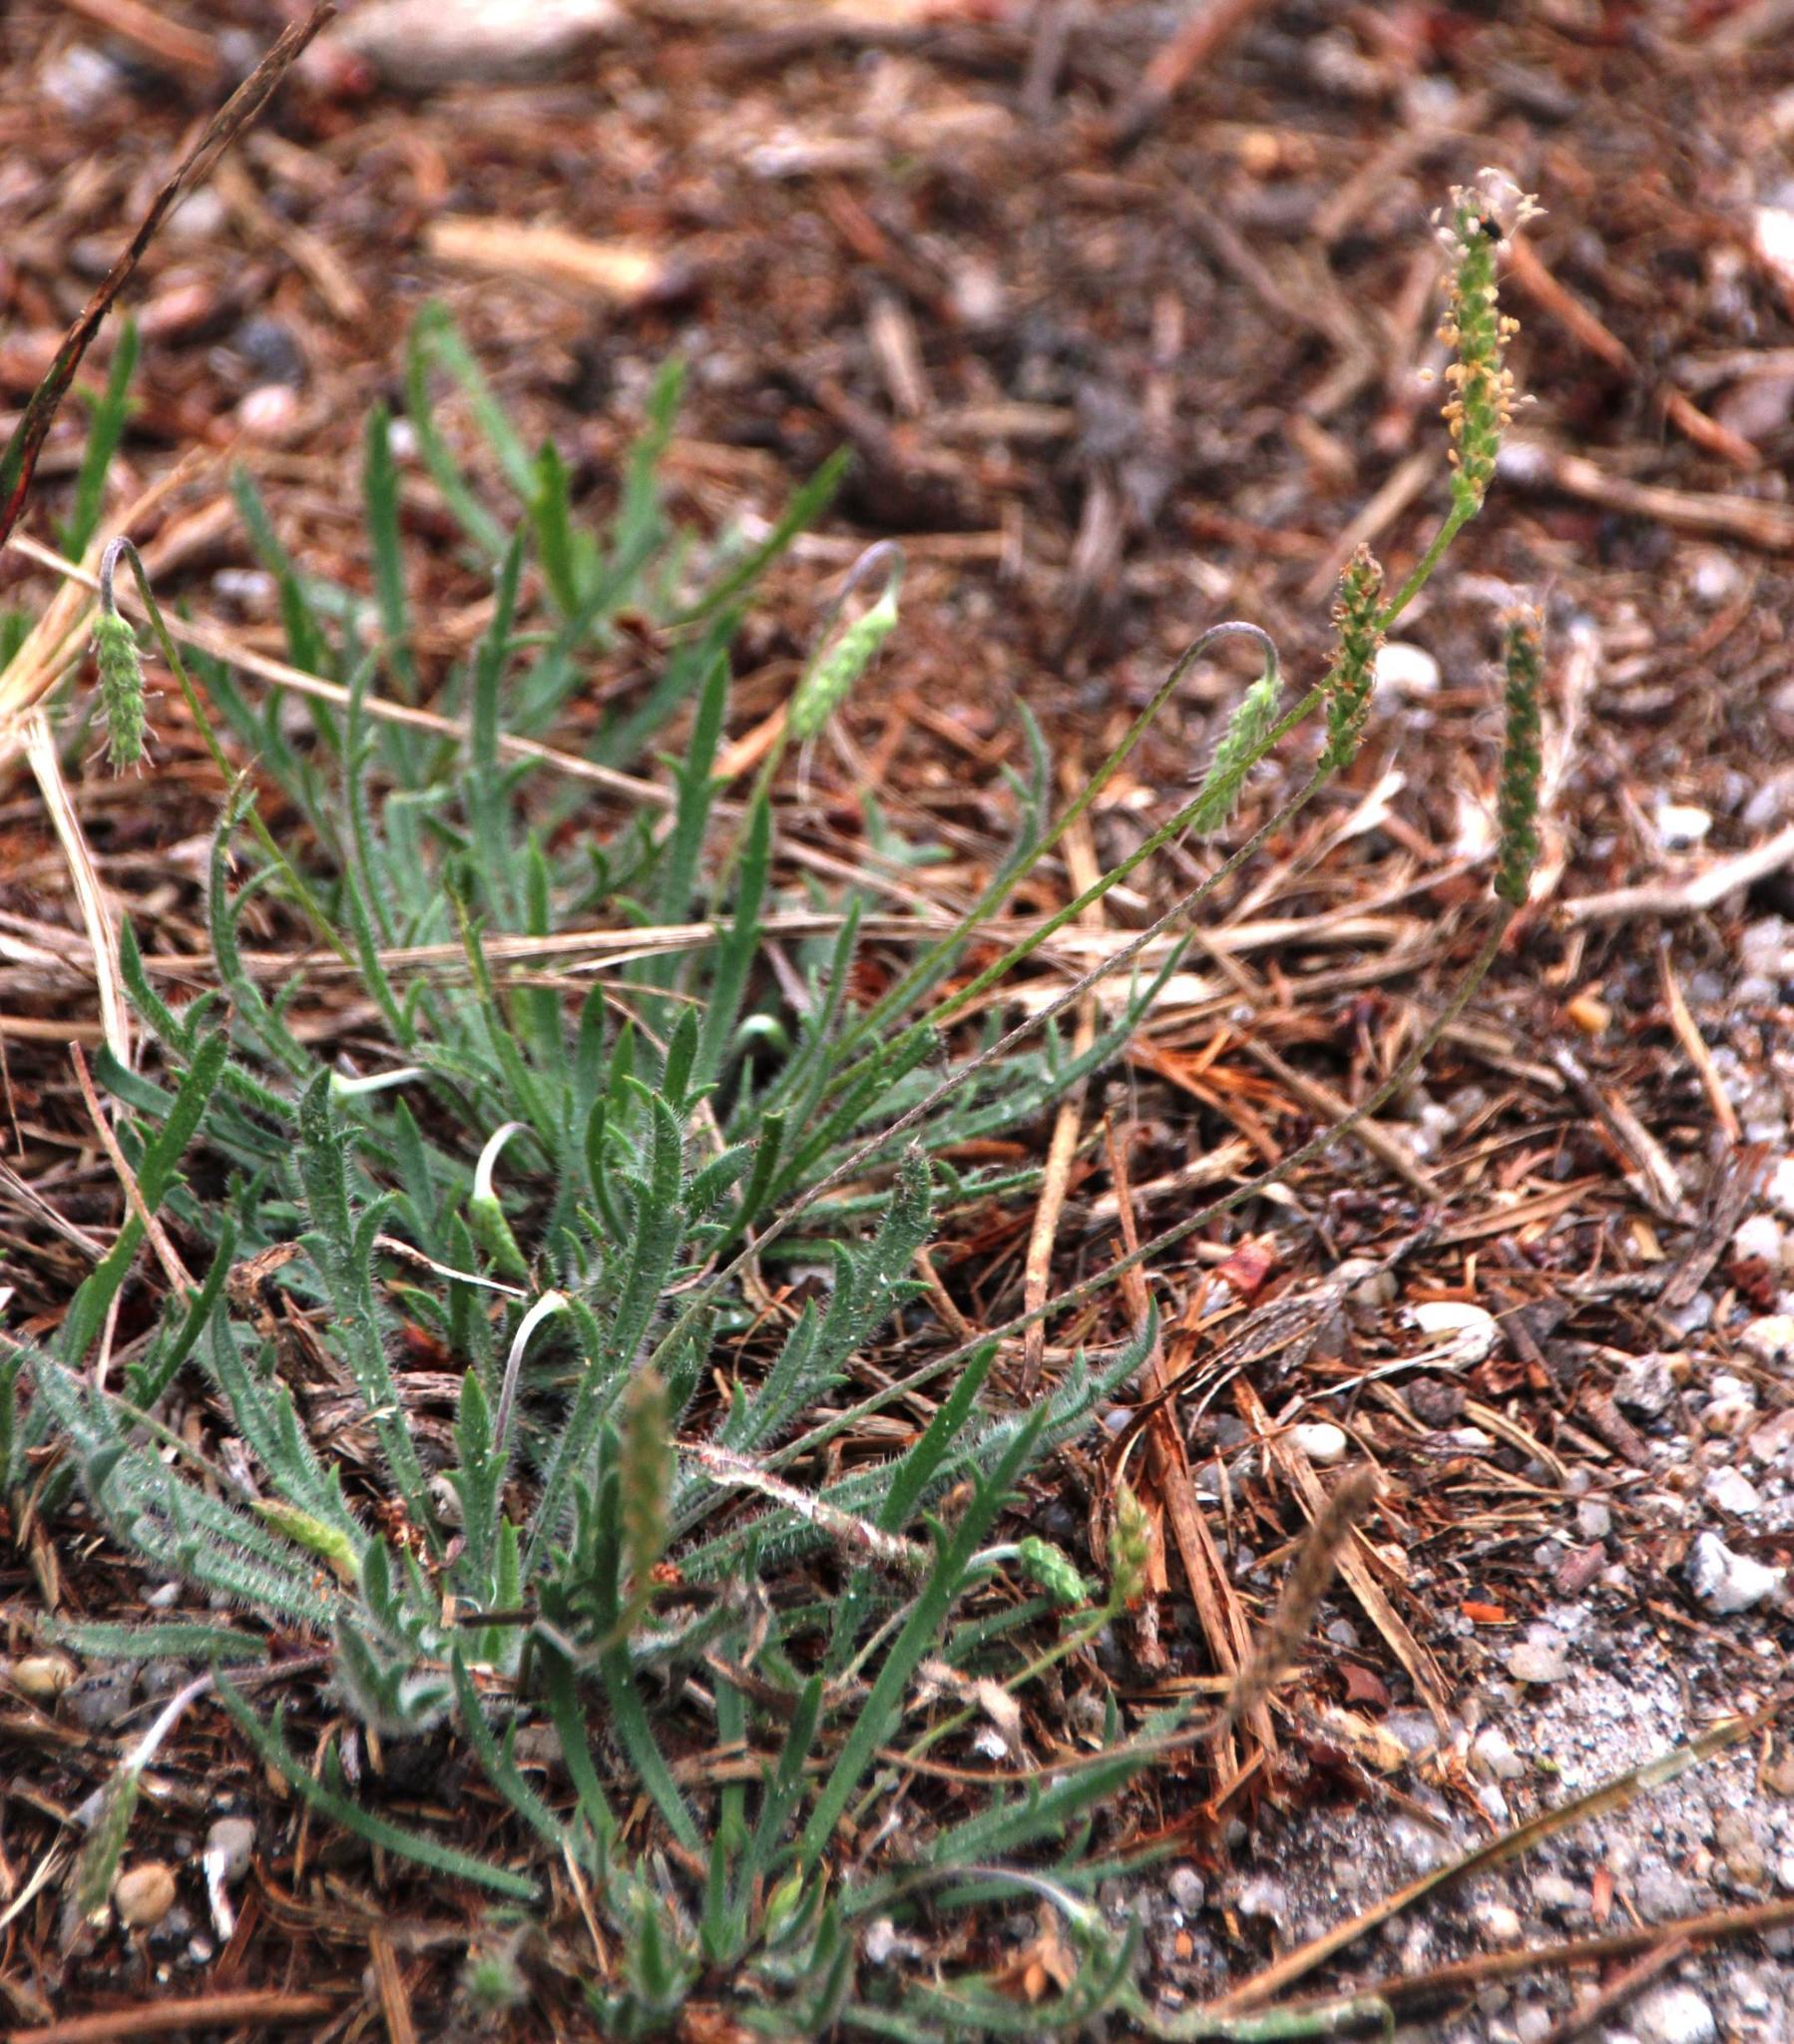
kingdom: Plantae
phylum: Tracheophyta
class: Magnoliopsida
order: Lamiales
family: Plantaginaceae
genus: Plantago
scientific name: Plantago coronopus
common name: Buck's-horn plantain
